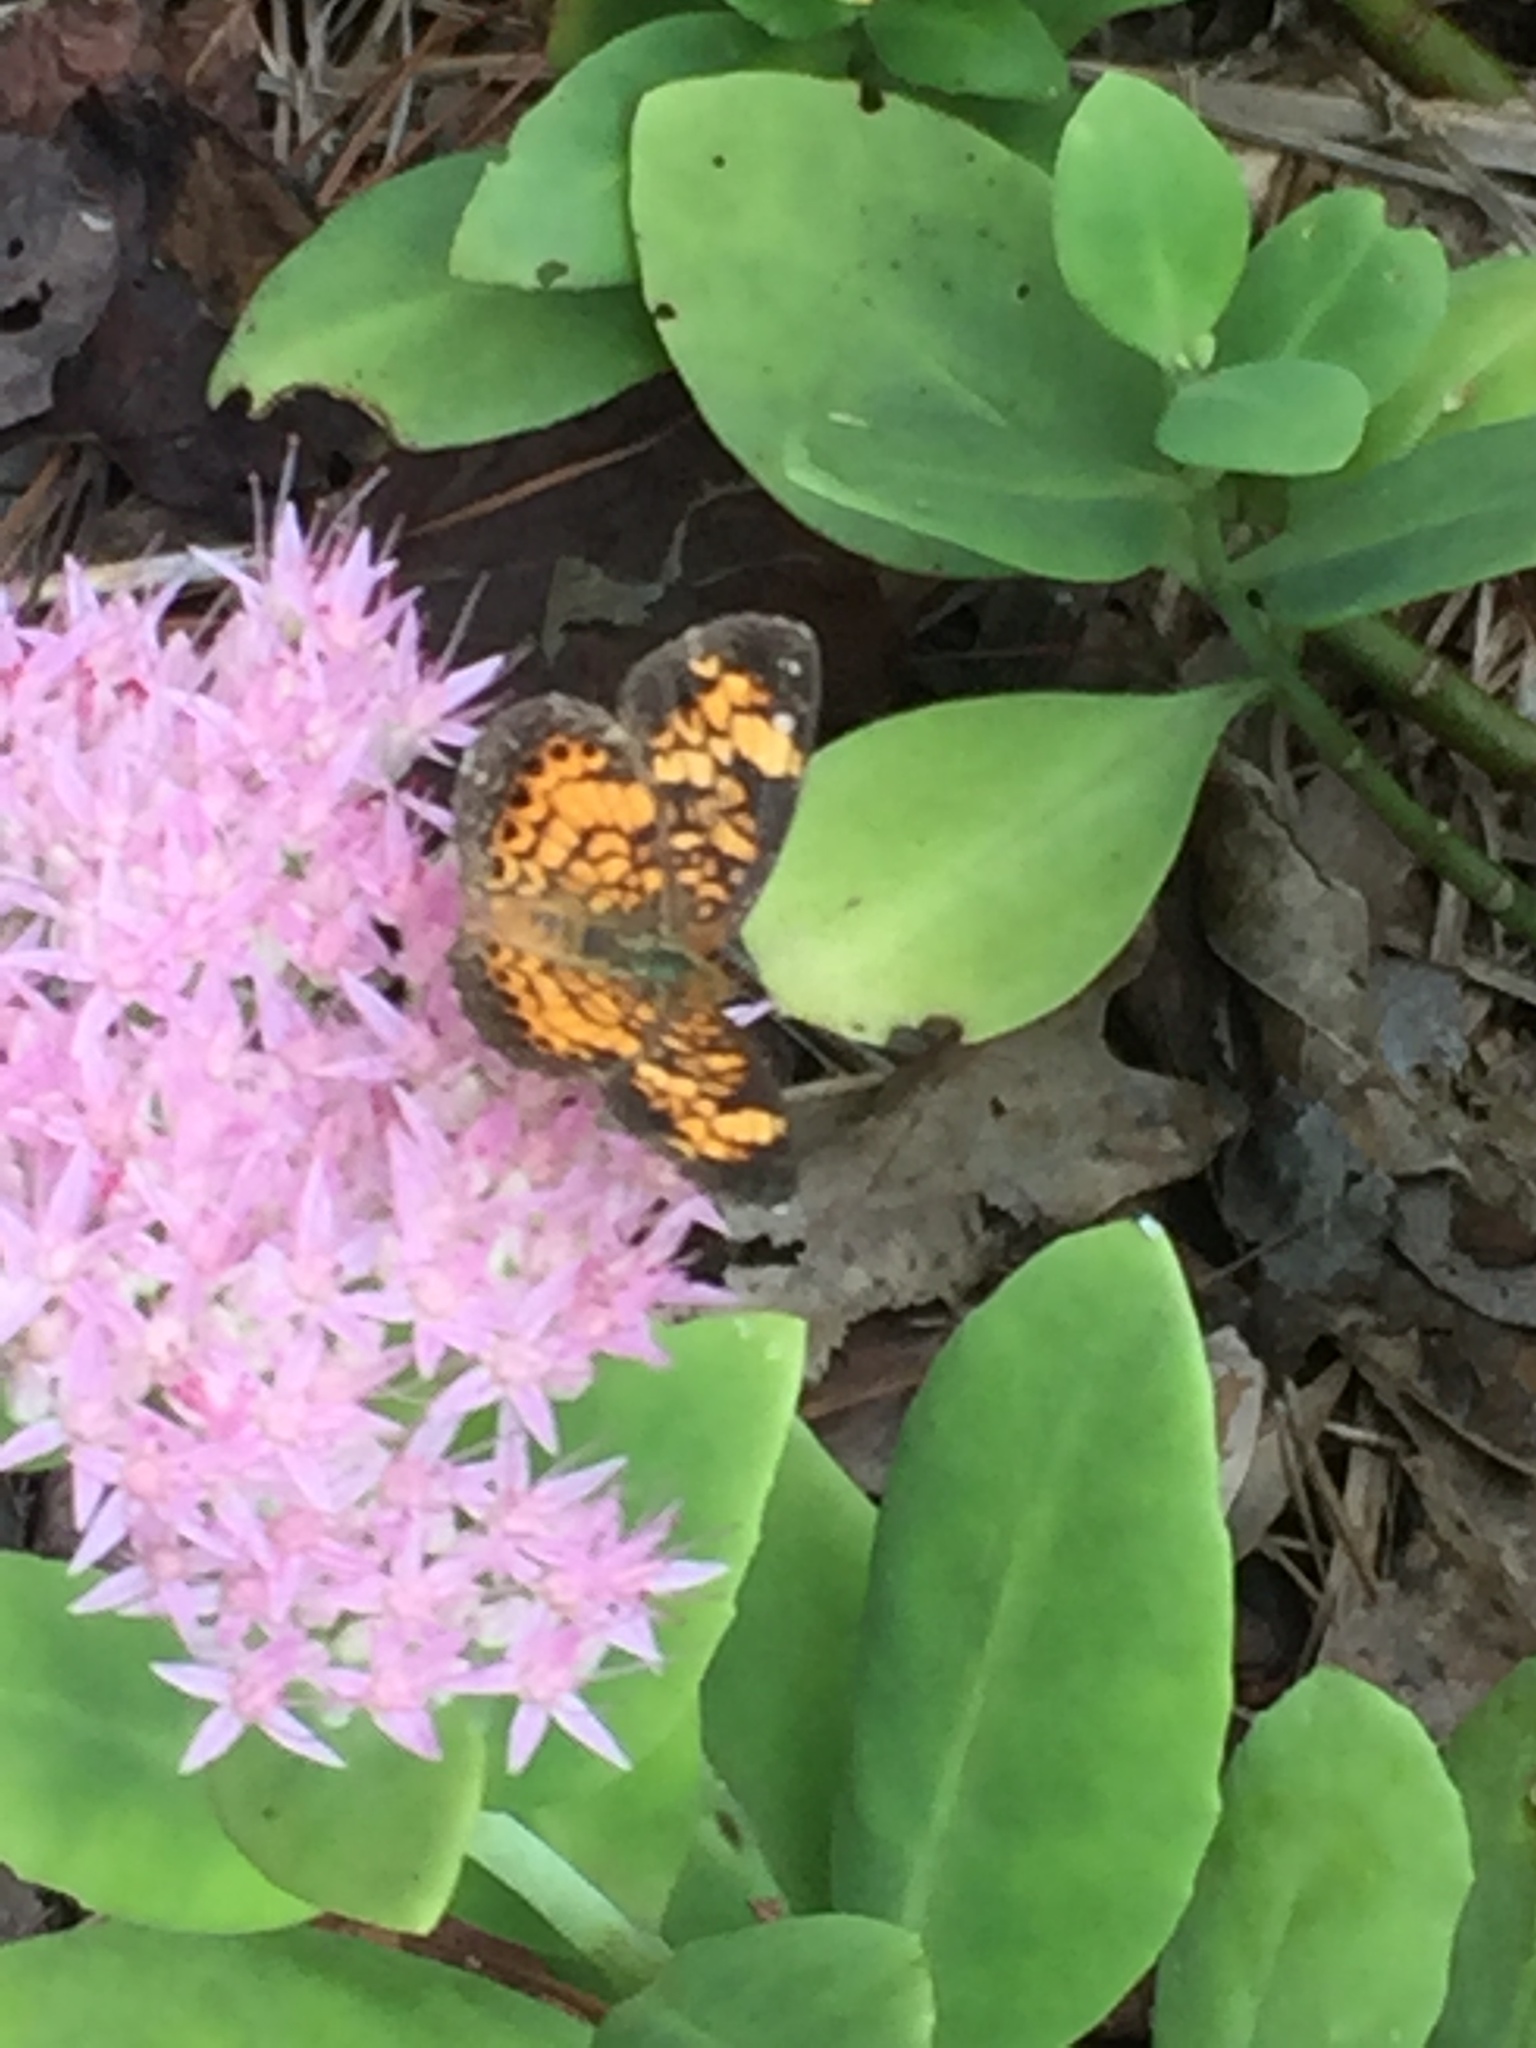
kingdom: Animalia
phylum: Arthropoda
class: Insecta
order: Lepidoptera
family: Nymphalidae
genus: Phyciodes
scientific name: Phyciodes tharos
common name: Pearl crescent
